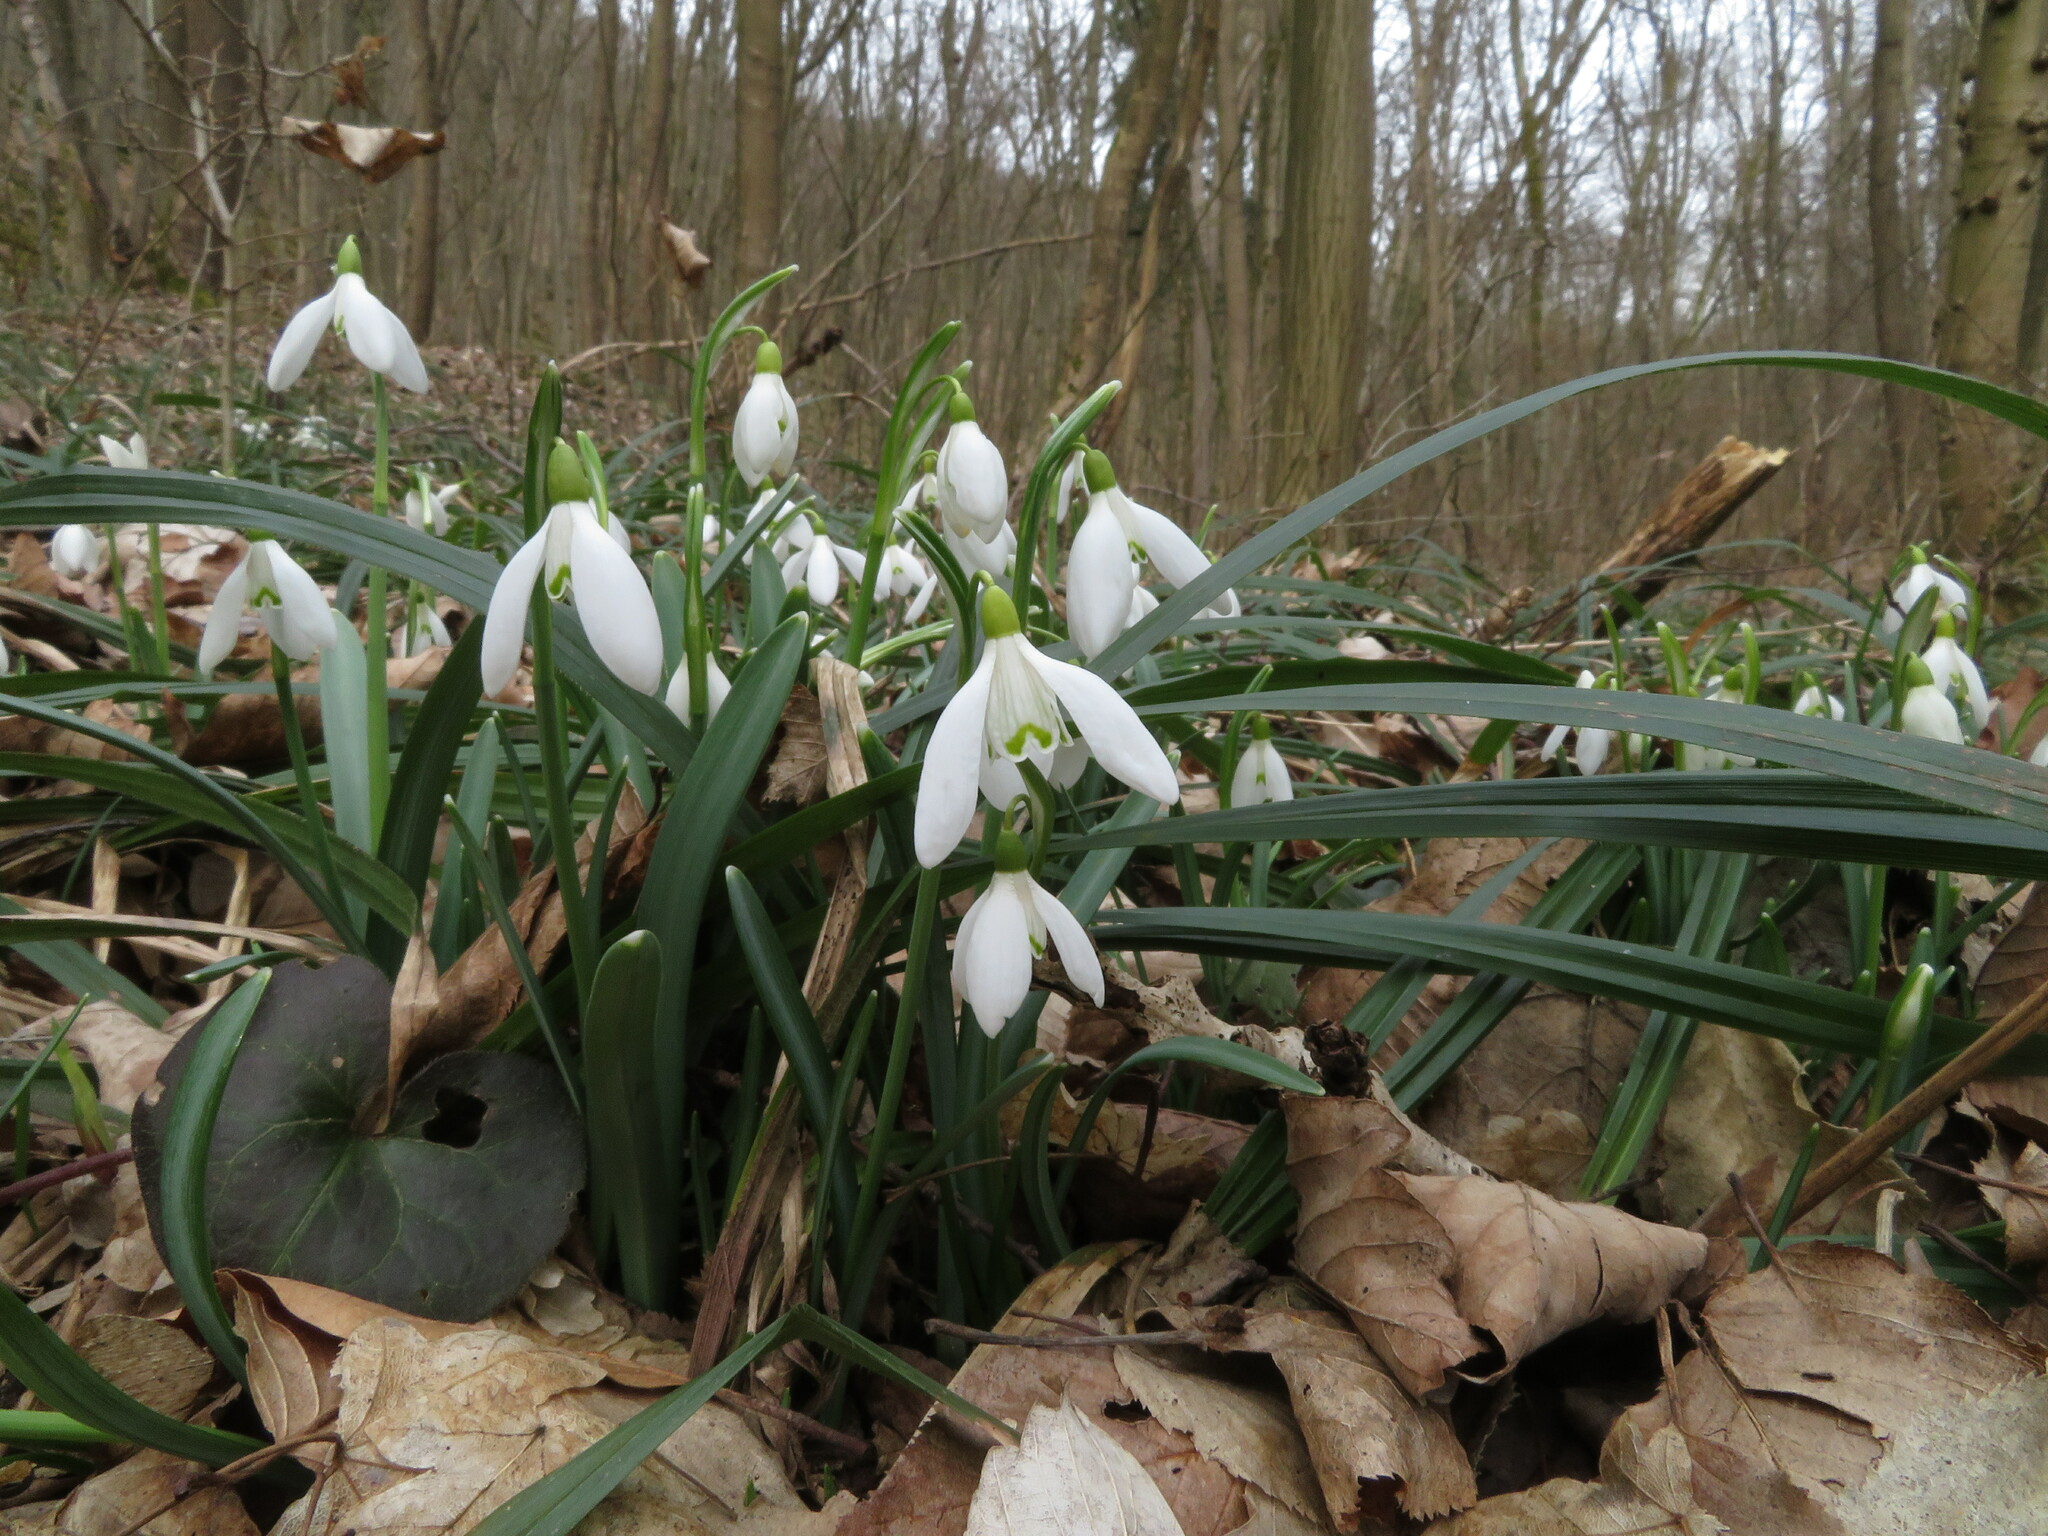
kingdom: Plantae
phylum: Tracheophyta
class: Liliopsida
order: Asparagales
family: Amaryllidaceae
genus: Galanthus
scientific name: Galanthus nivalis
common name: Snowdrop
